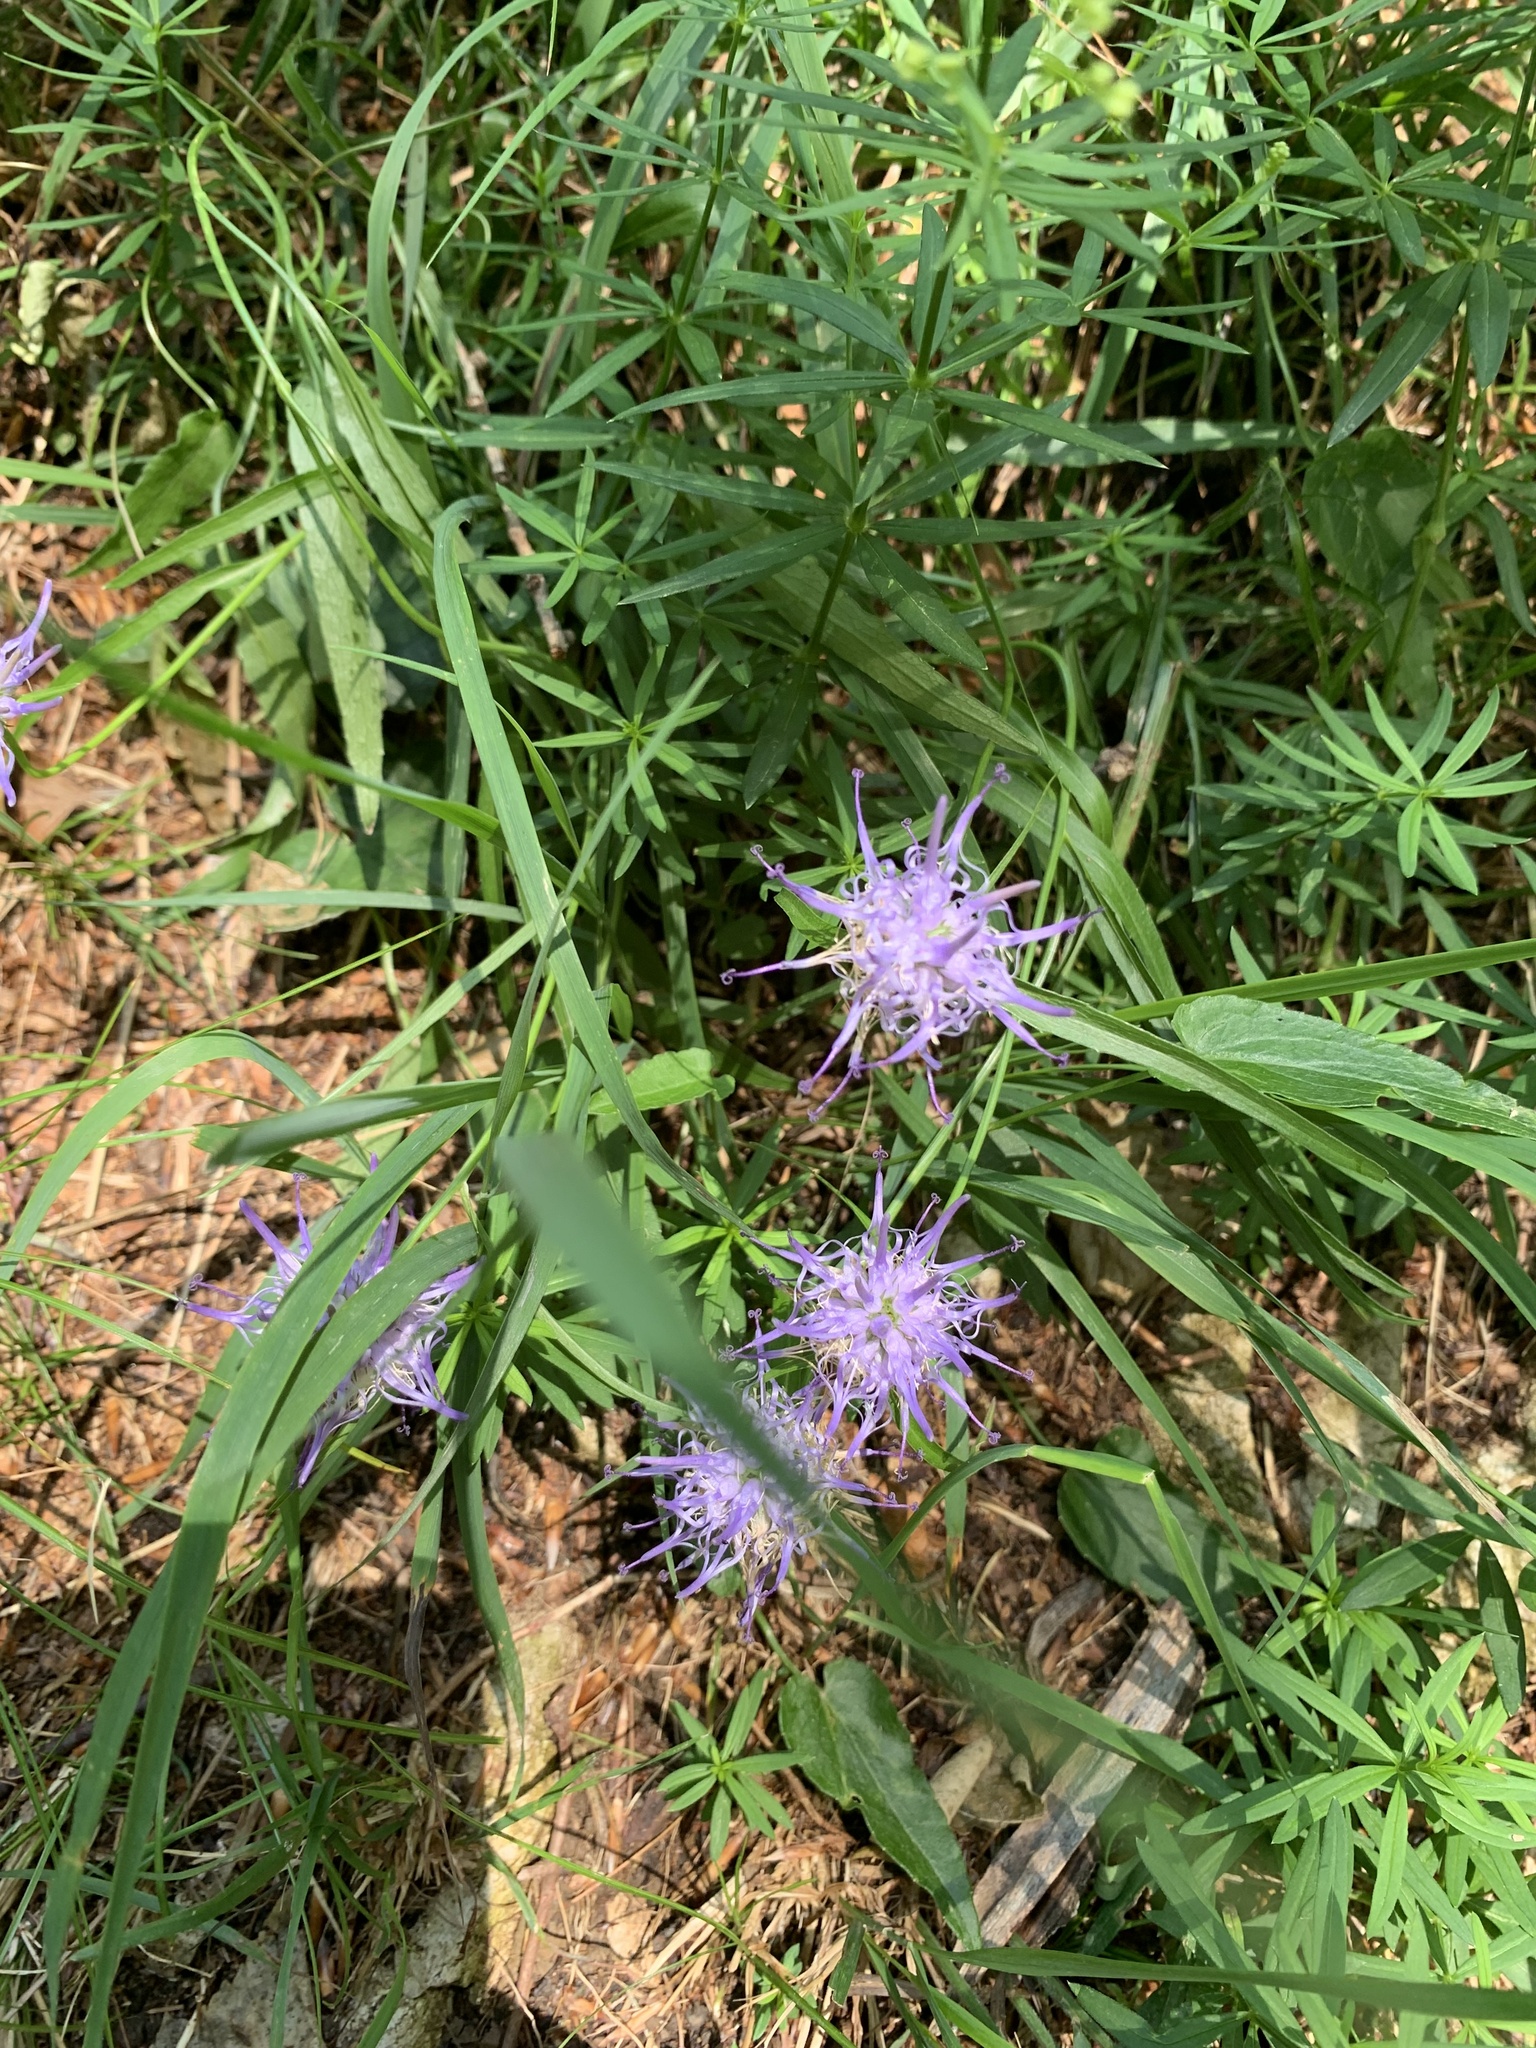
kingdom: Plantae
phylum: Tracheophyta
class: Magnoliopsida
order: Asterales
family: Campanulaceae
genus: Phyteuma
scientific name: Phyteuma scheuchzeri
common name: Oxford rampion
